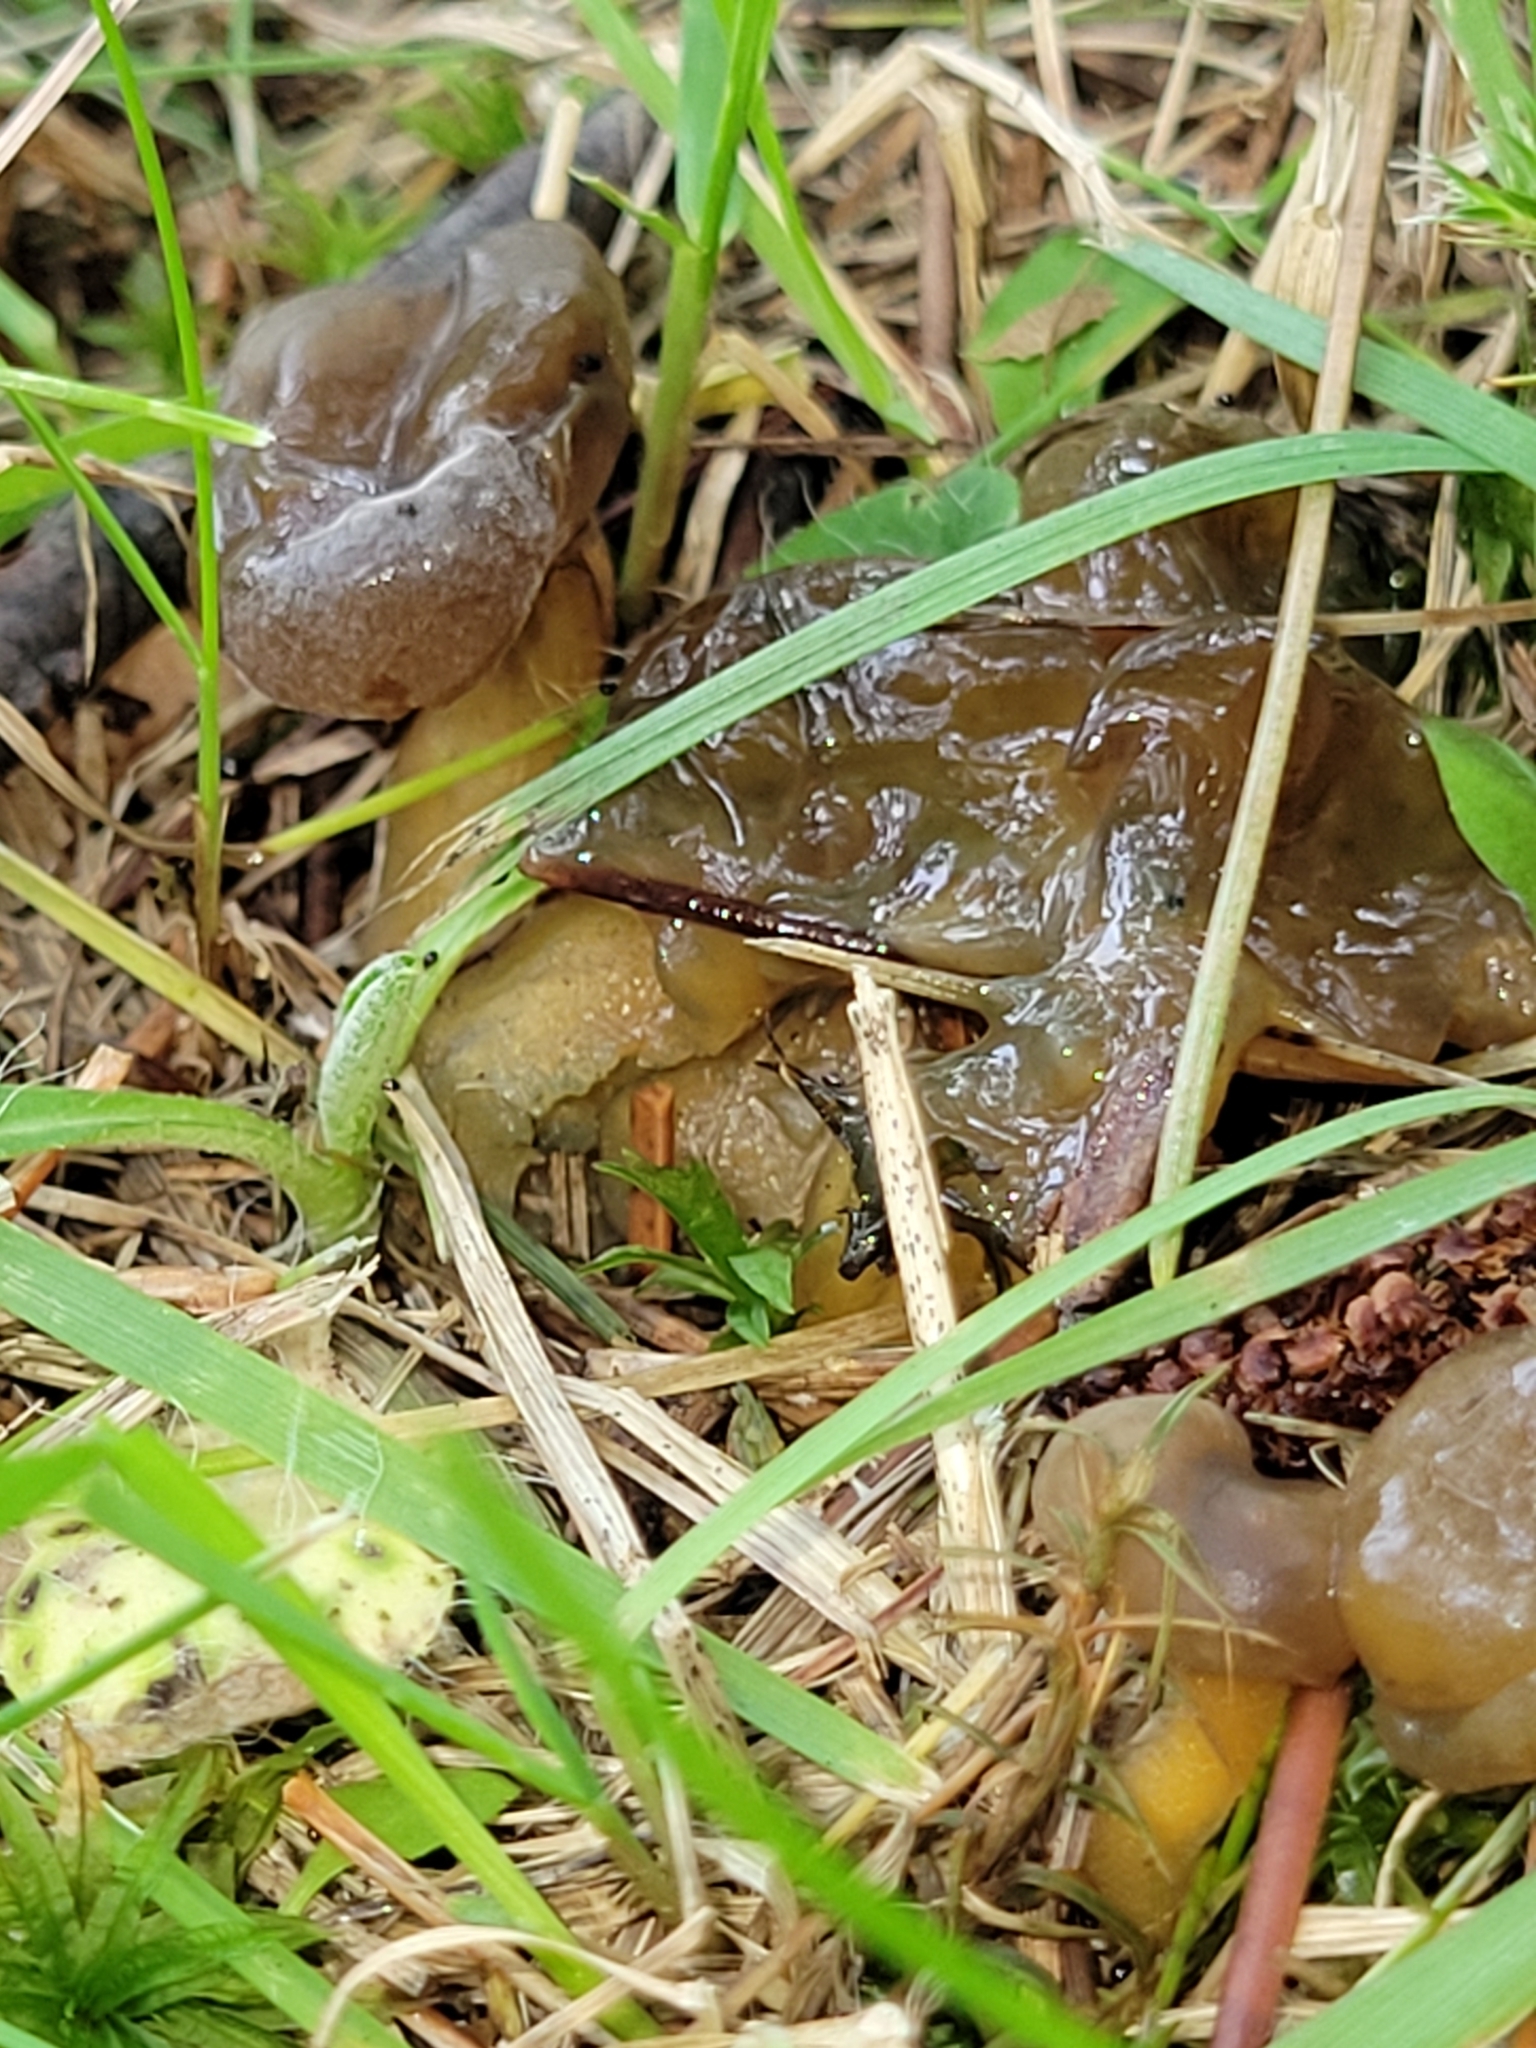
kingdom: Fungi
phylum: Ascomycota
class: Leotiomycetes
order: Leotiales
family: Leotiaceae
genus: Leotia
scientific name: Leotia lubrica
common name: Jellybaby
